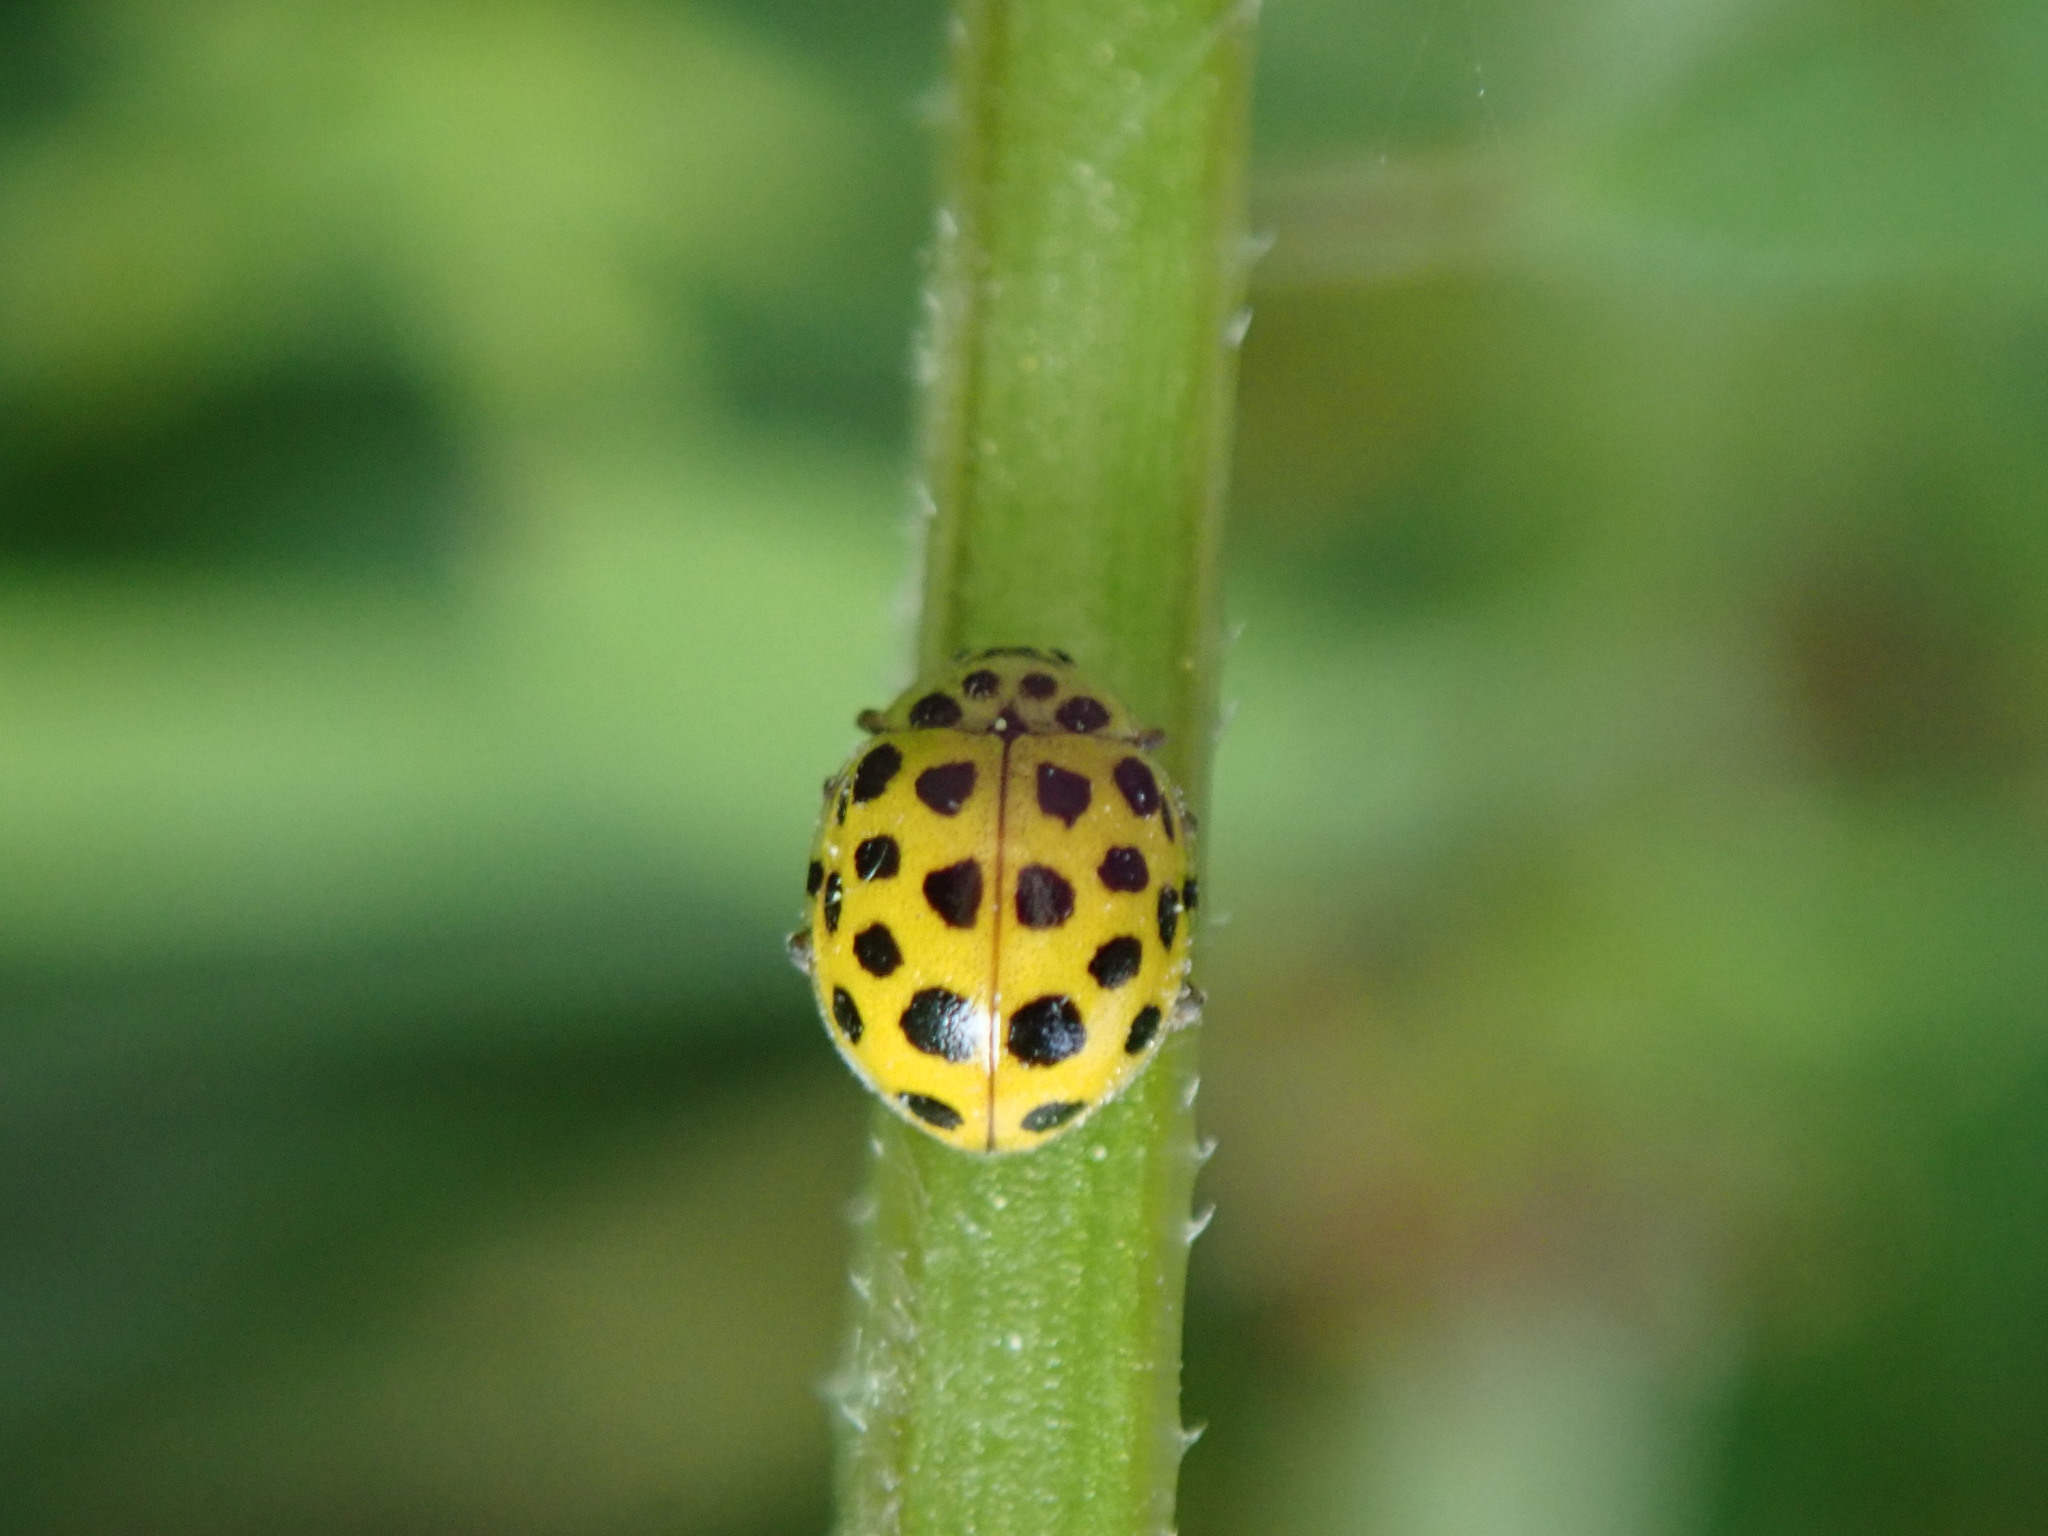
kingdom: Animalia
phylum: Arthropoda
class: Insecta
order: Coleoptera
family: Coccinellidae
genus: Psyllobora
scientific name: Psyllobora vigintiduopunctata
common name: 22-spot ladybird
